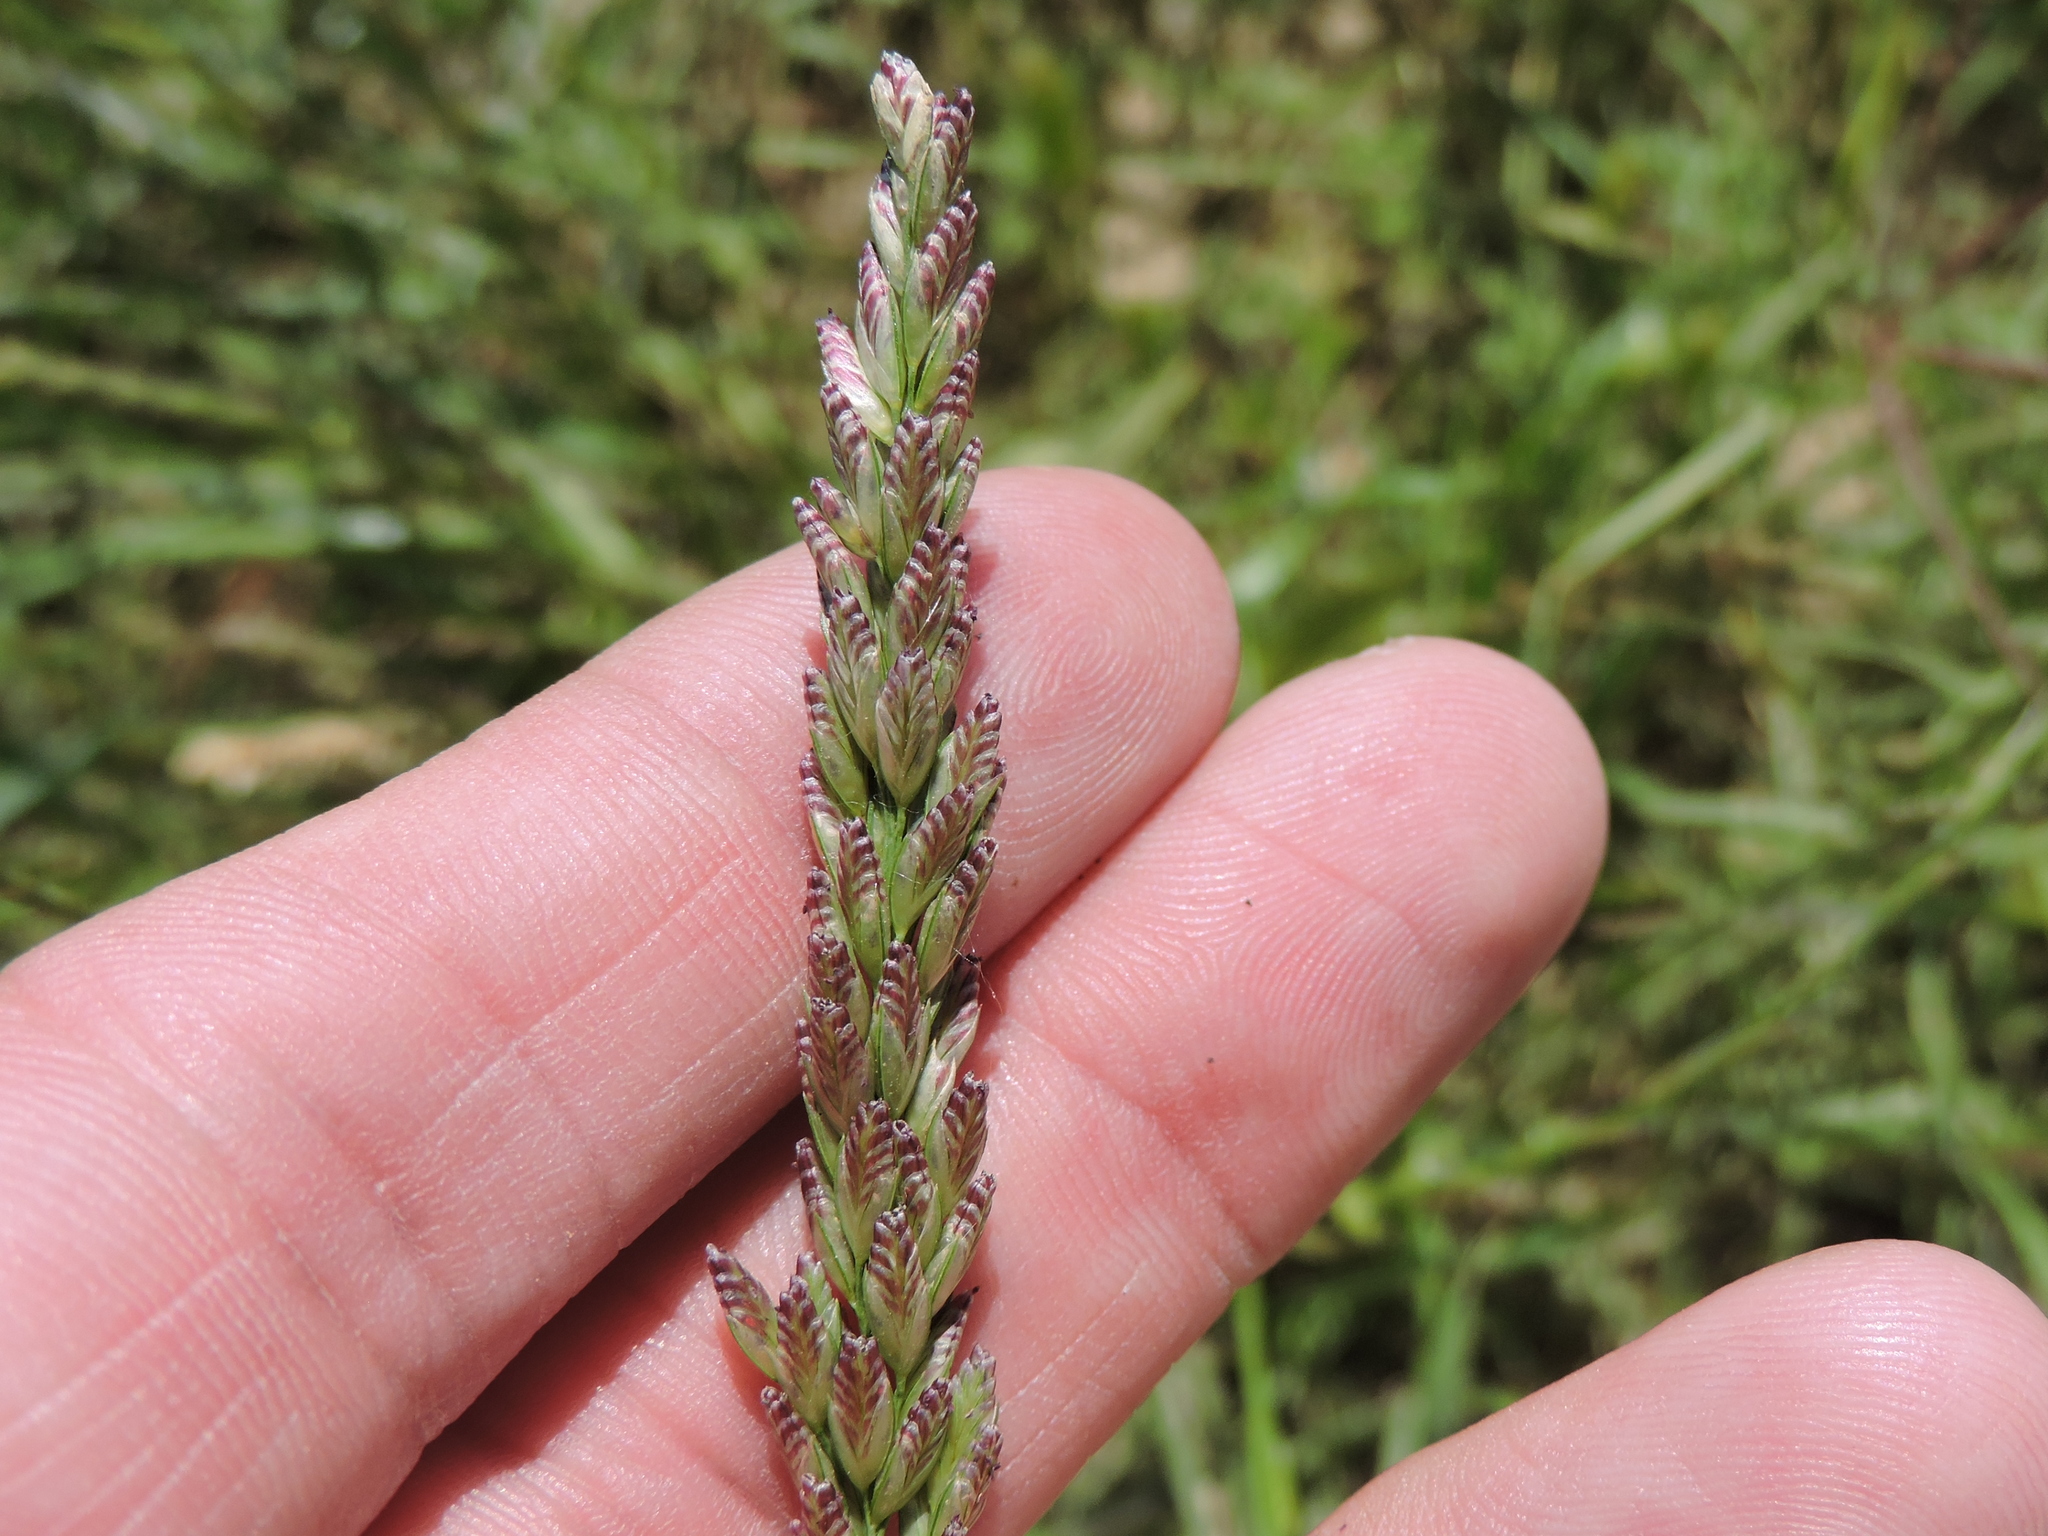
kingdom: Plantae
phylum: Tracheophyta
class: Liliopsida
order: Poales
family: Poaceae
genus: Tridens
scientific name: Tridens albescens
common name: White tridens
